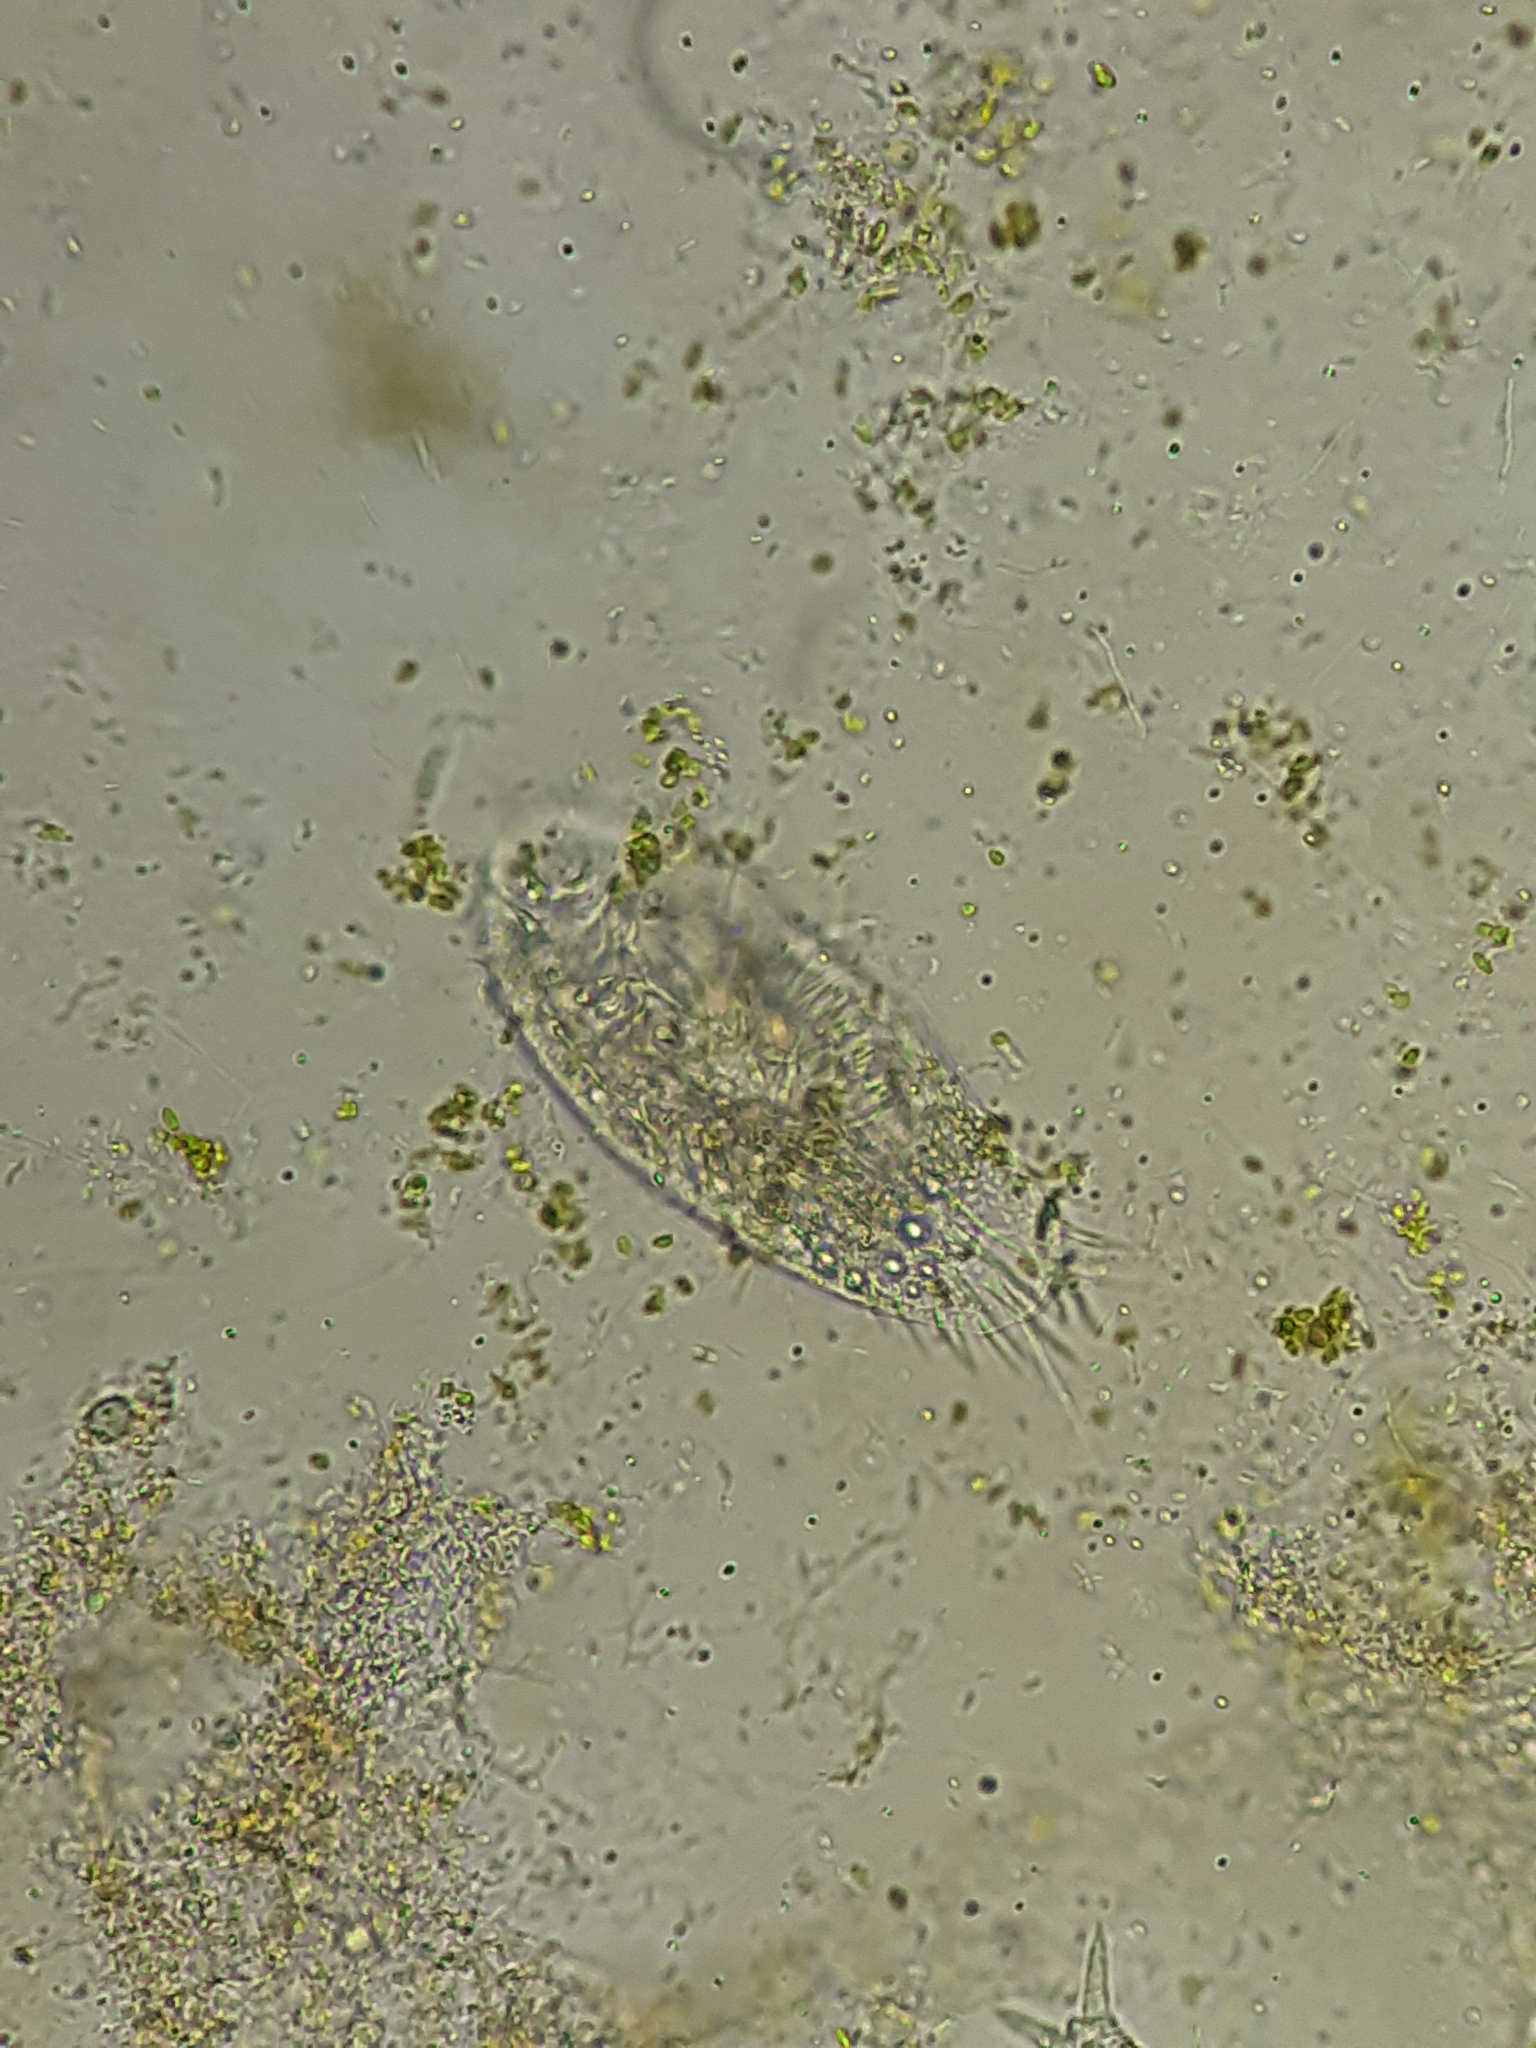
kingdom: Chromista
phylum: Ciliophora
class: Hypotrichea
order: Oxytrichida
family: Oxytrichidae
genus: Stylonychia
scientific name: Stylonychia
